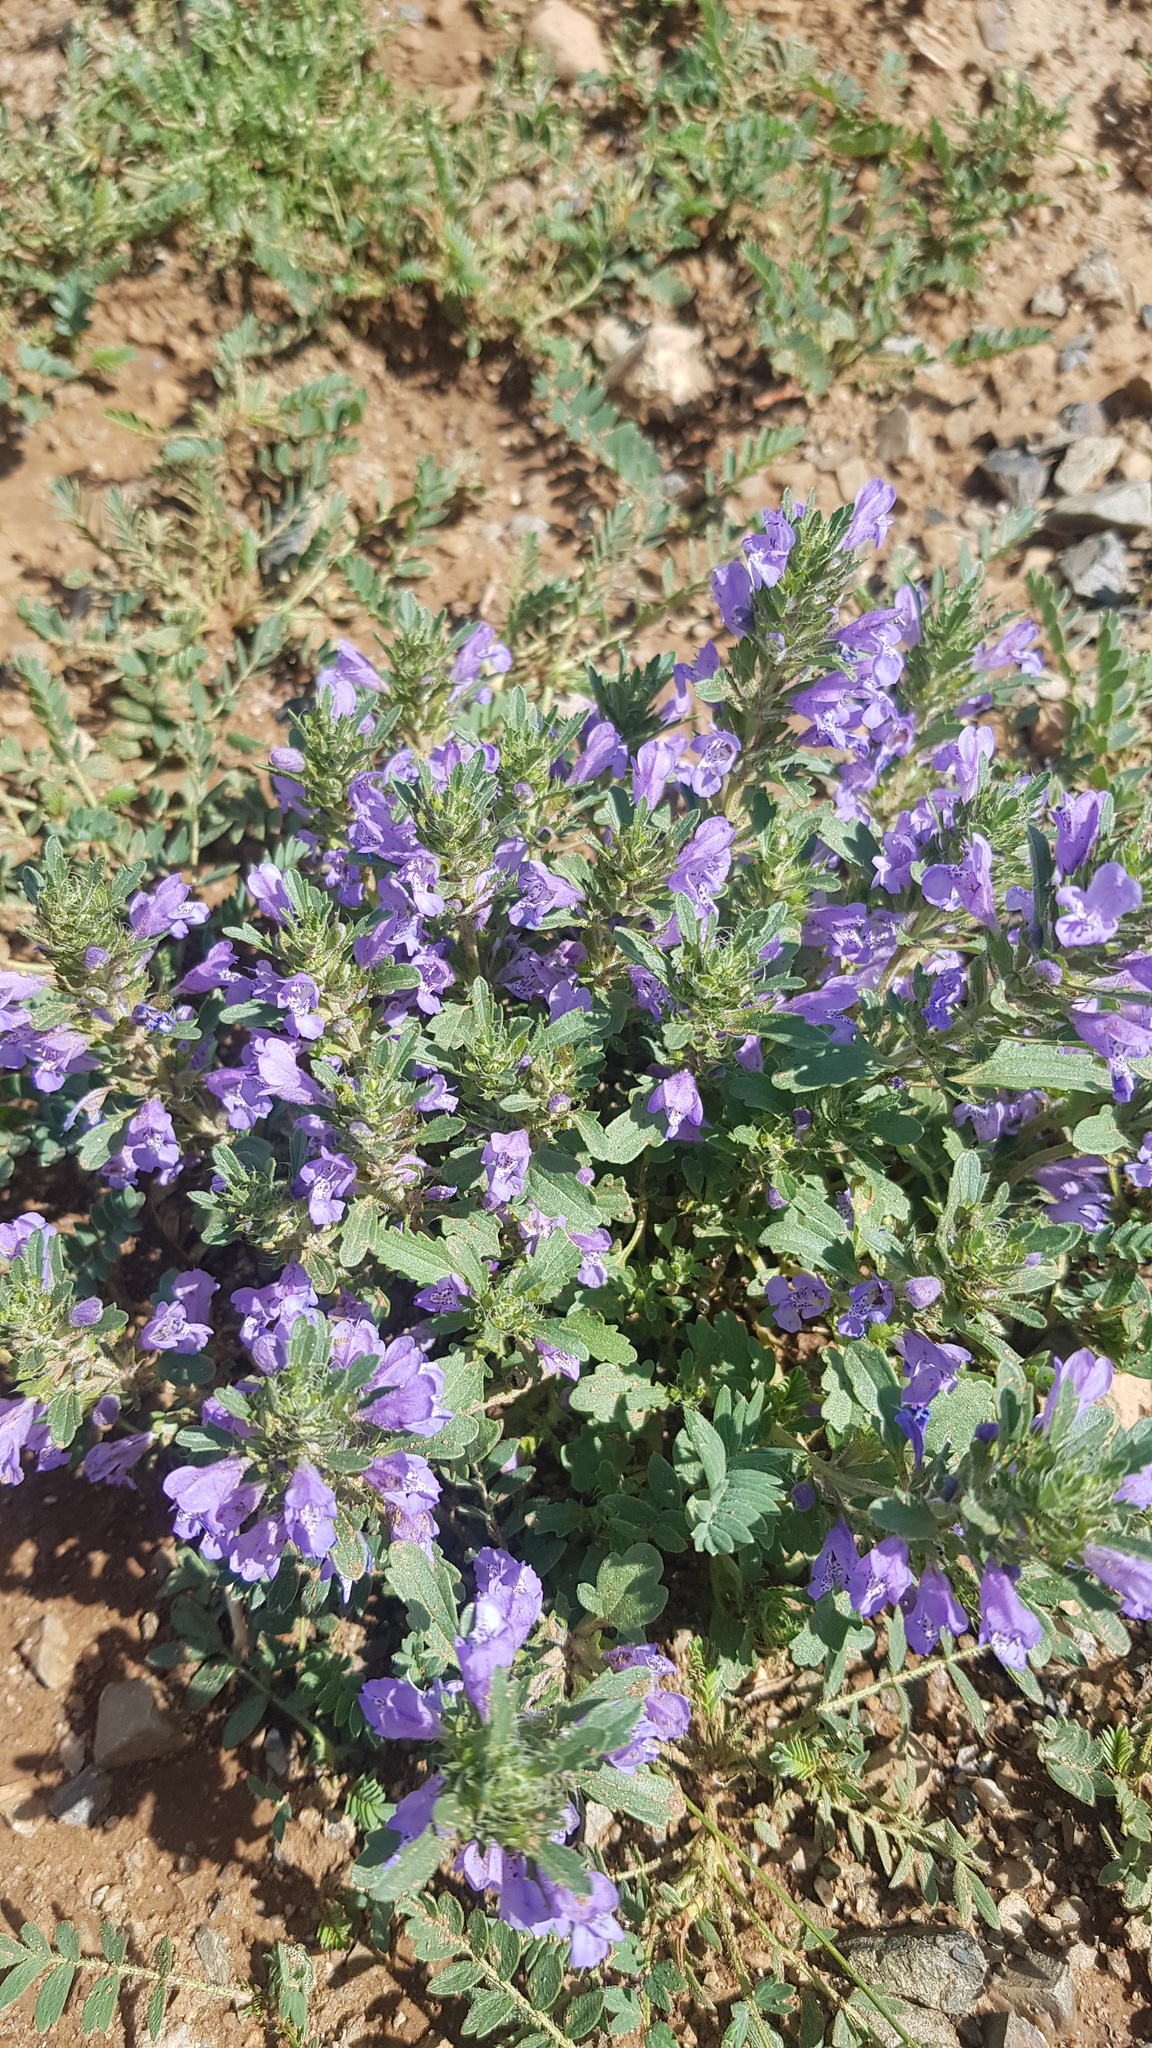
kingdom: Plantae
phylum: Tracheophyta
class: Magnoliopsida
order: Lamiales
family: Lamiaceae
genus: Dracocephalum
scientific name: Dracocephalum foetidum
